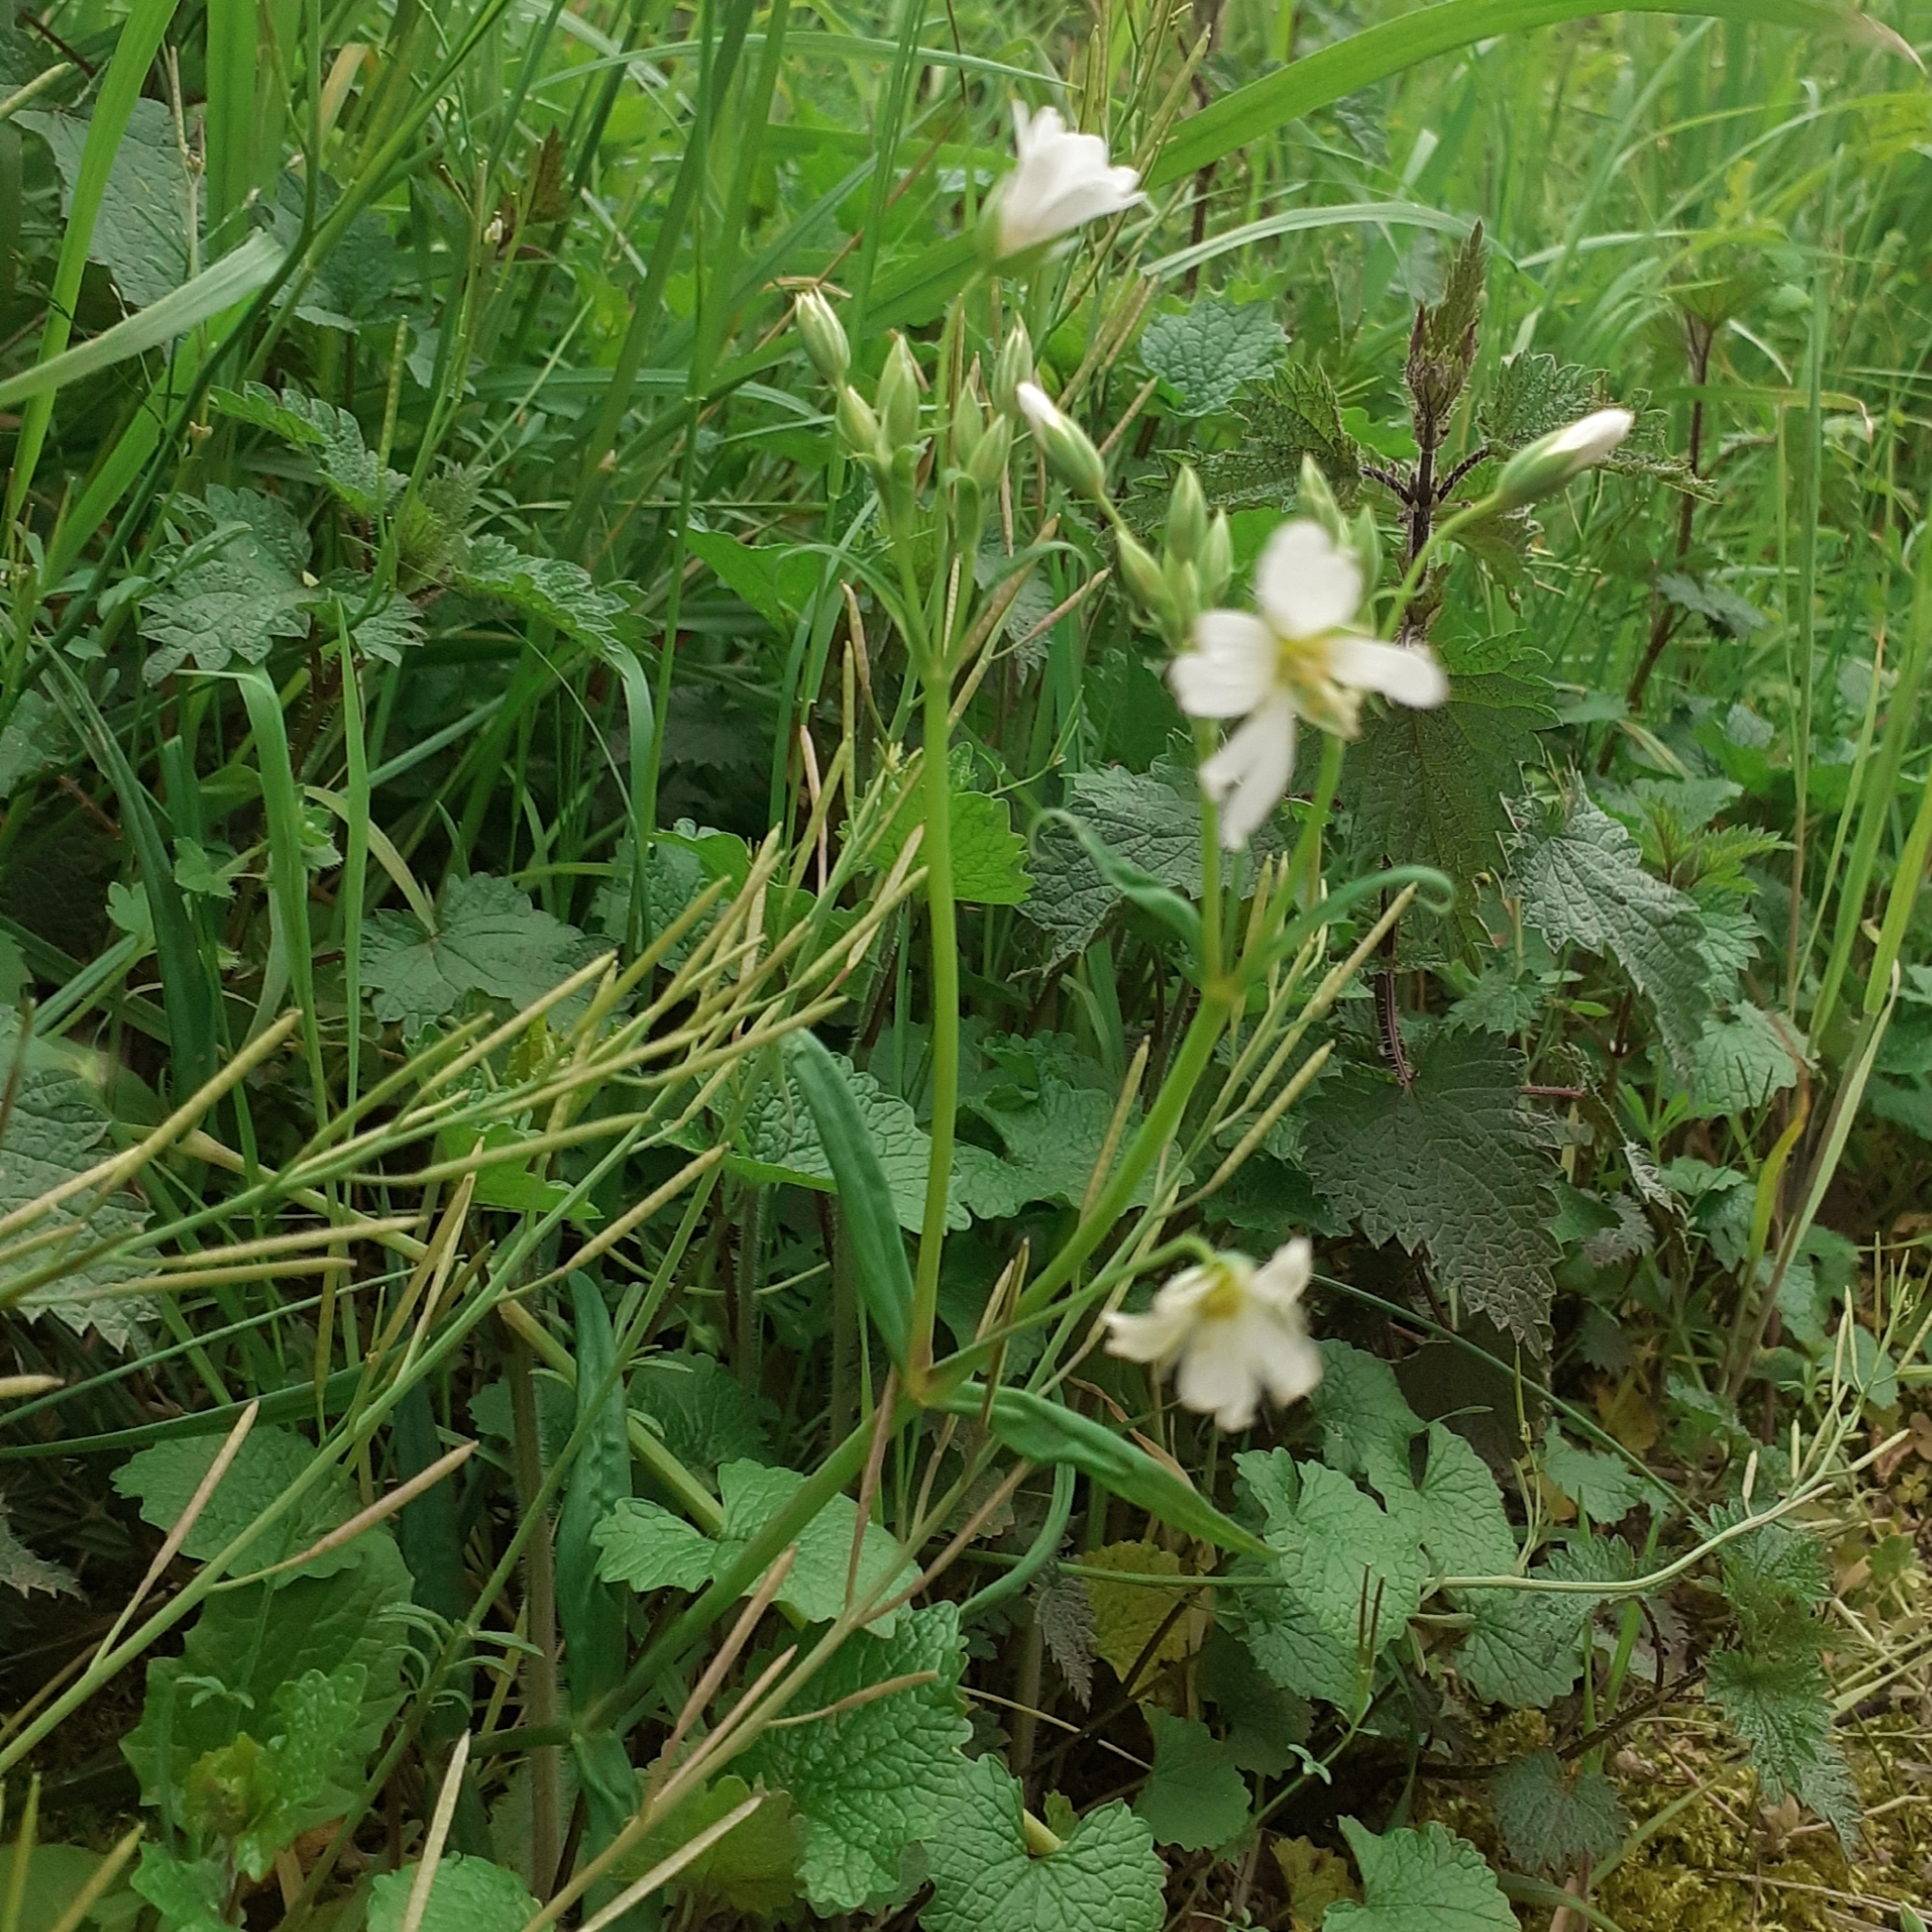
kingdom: Plantae
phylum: Tracheophyta
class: Magnoliopsida
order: Caryophyllales
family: Caryophyllaceae
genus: Rabelera
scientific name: Rabelera holostea
